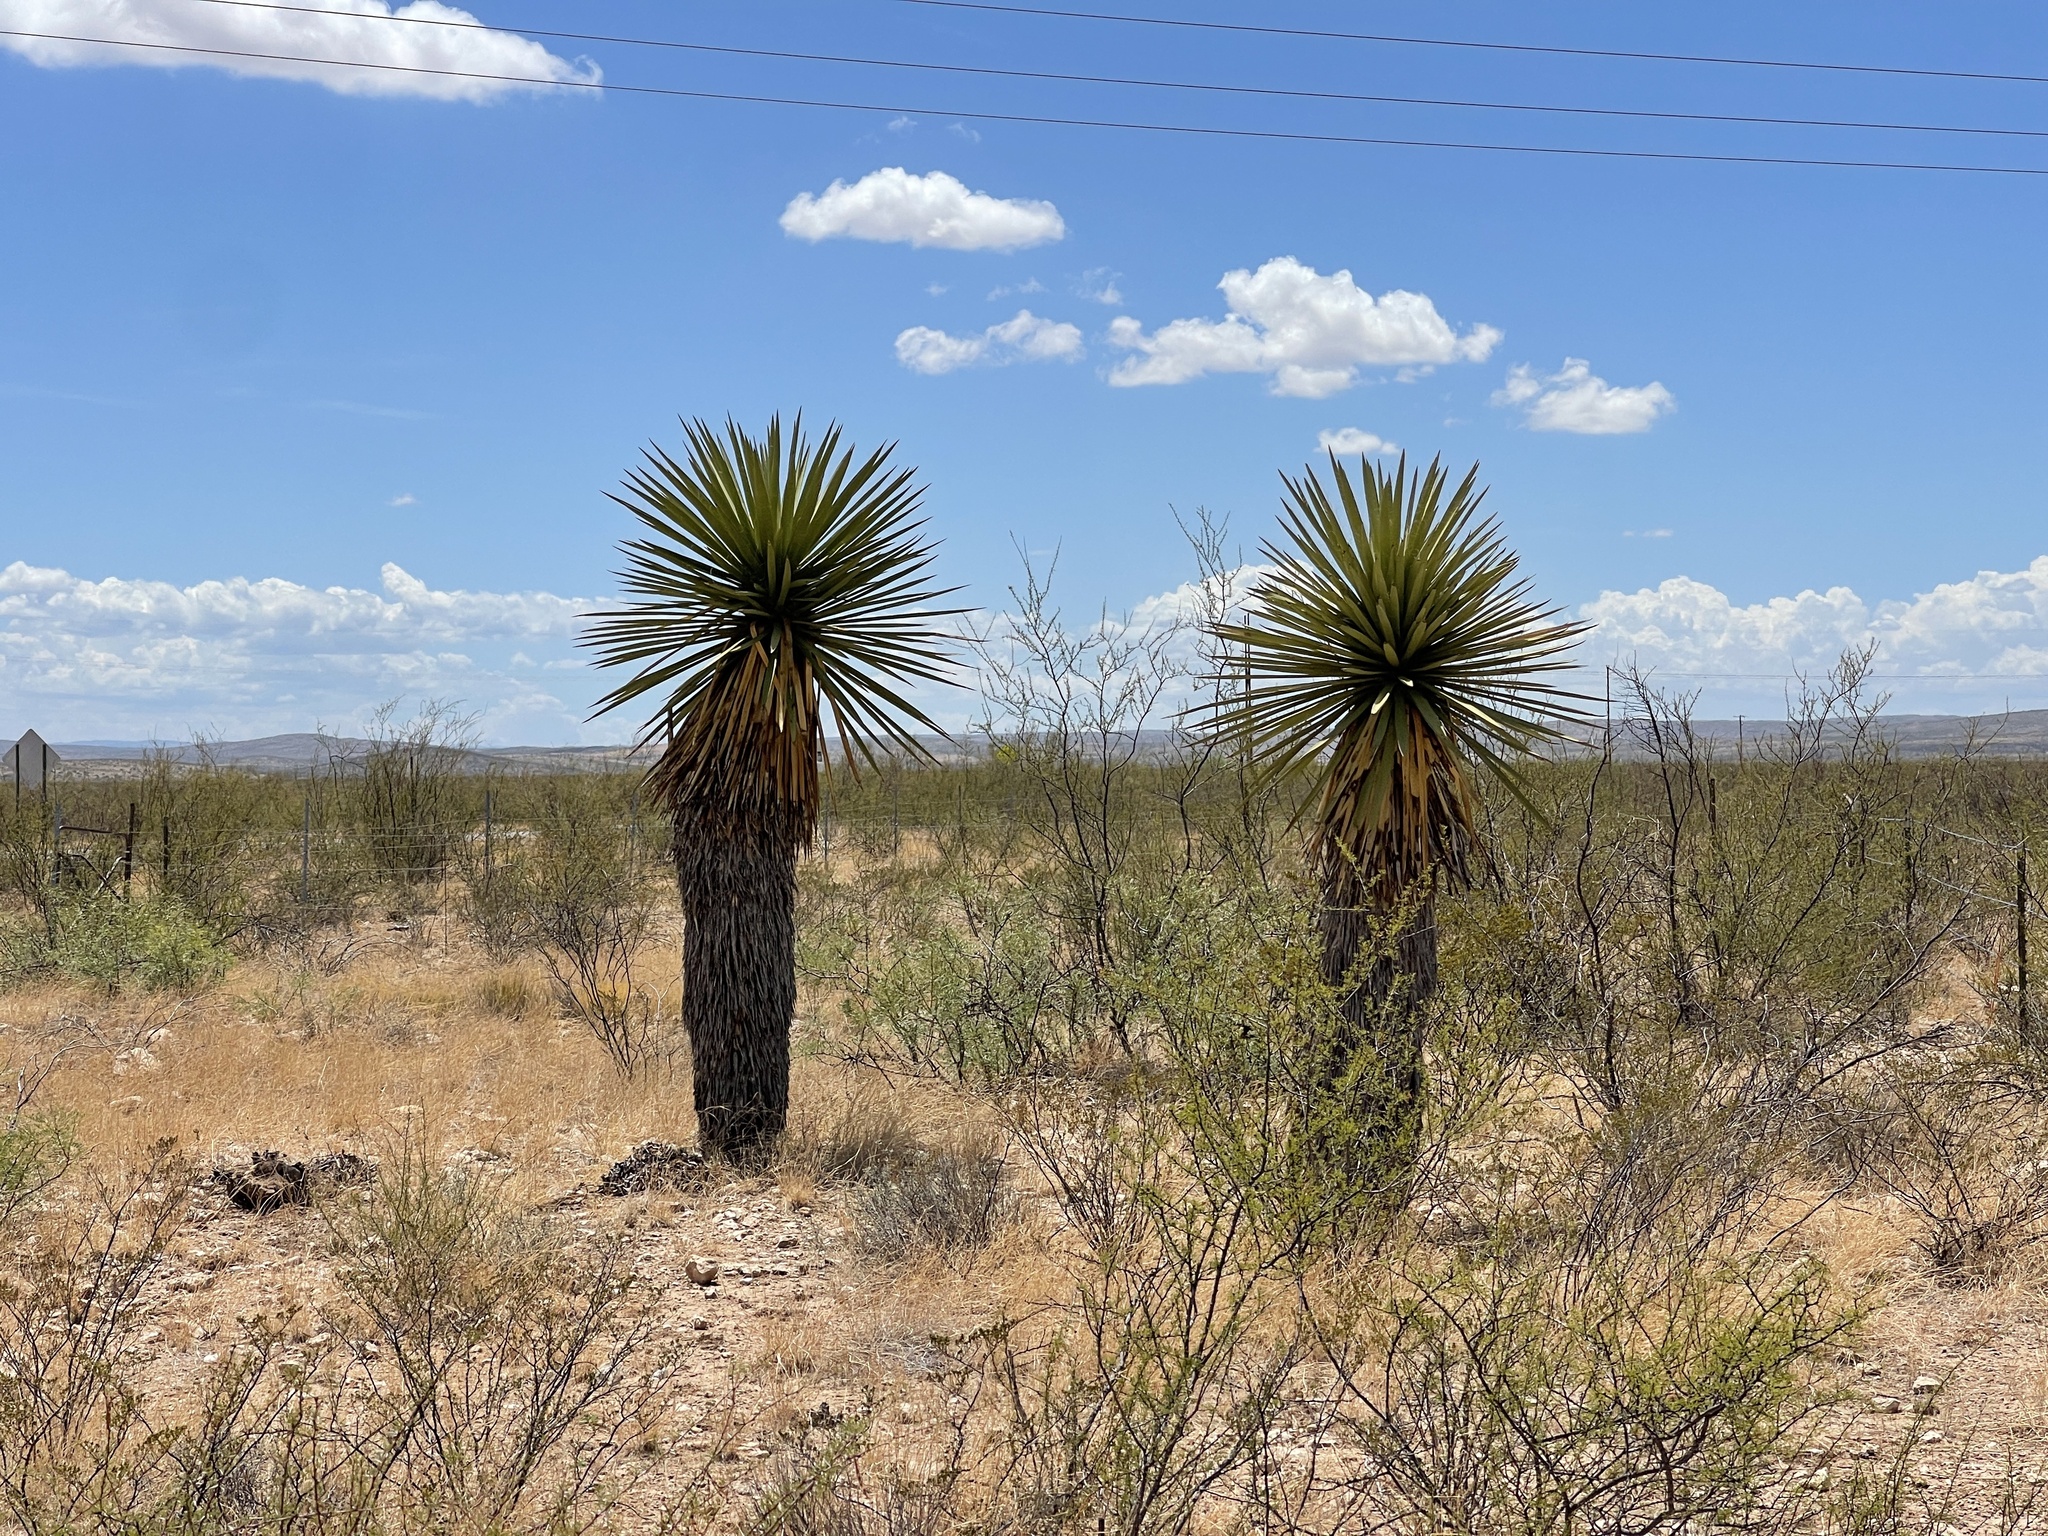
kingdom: Plantae
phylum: Tracheophyta
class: Liliopsida
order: Asparagales
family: Asparagaceae
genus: Yucca
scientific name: Yucca treculiana
